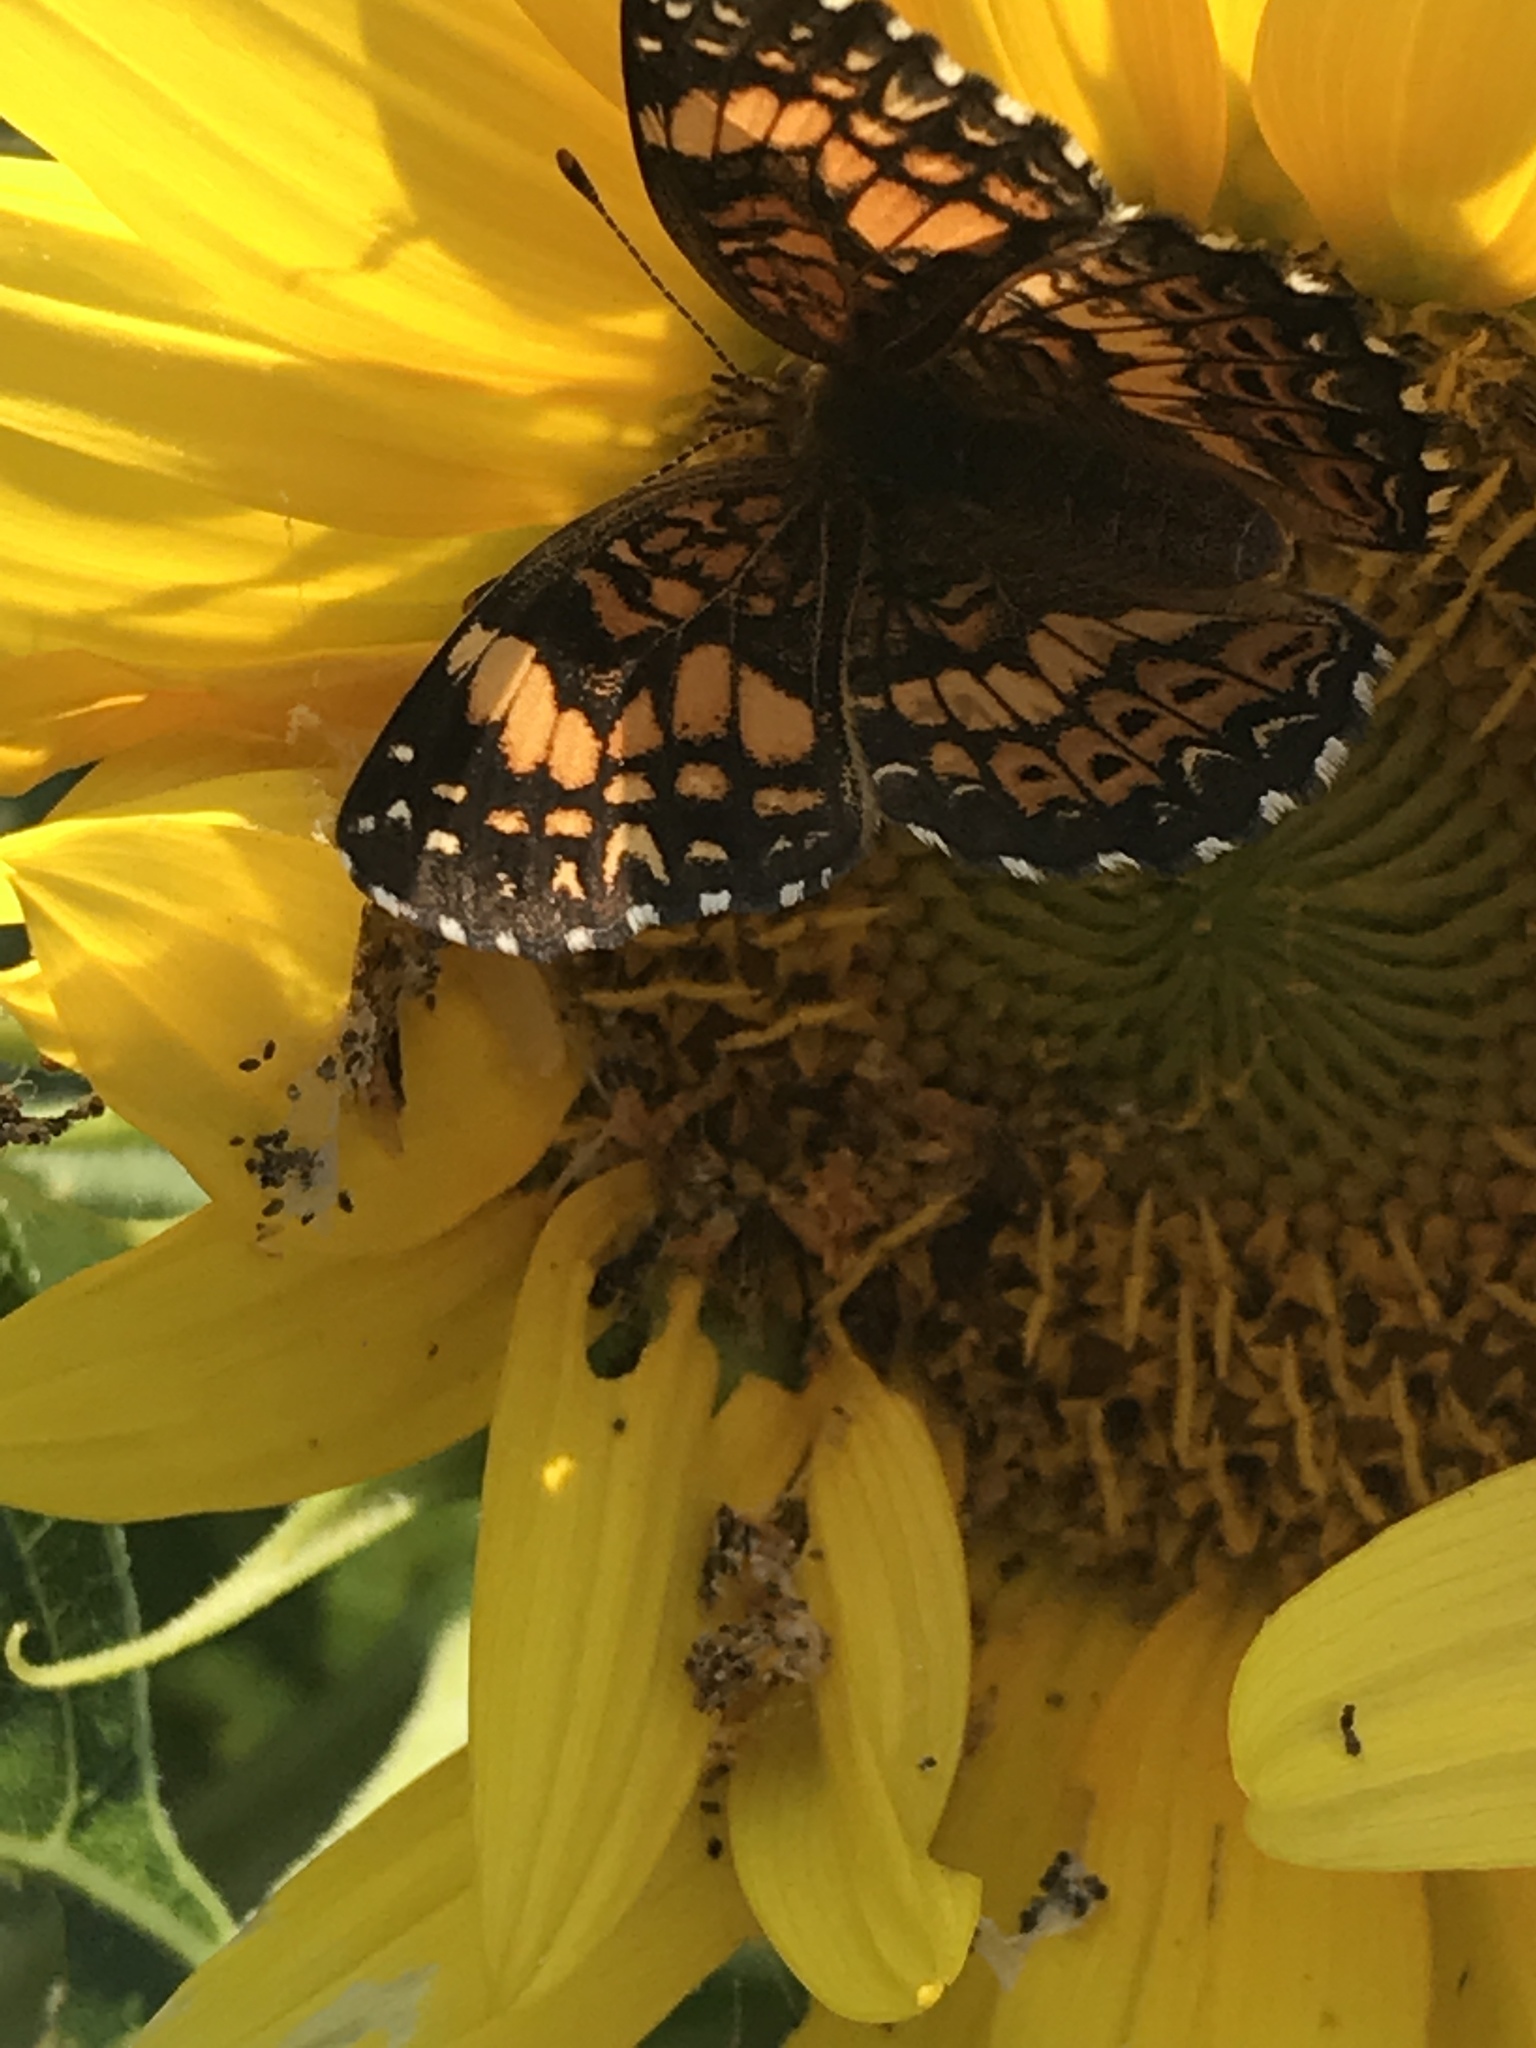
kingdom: Animalia
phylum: Arthropoda
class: Insecta
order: Lepidoptera
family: Nymphalidae
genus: Chlosyne
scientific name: Chlosyne gorgone
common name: Gorgone checkerspot
